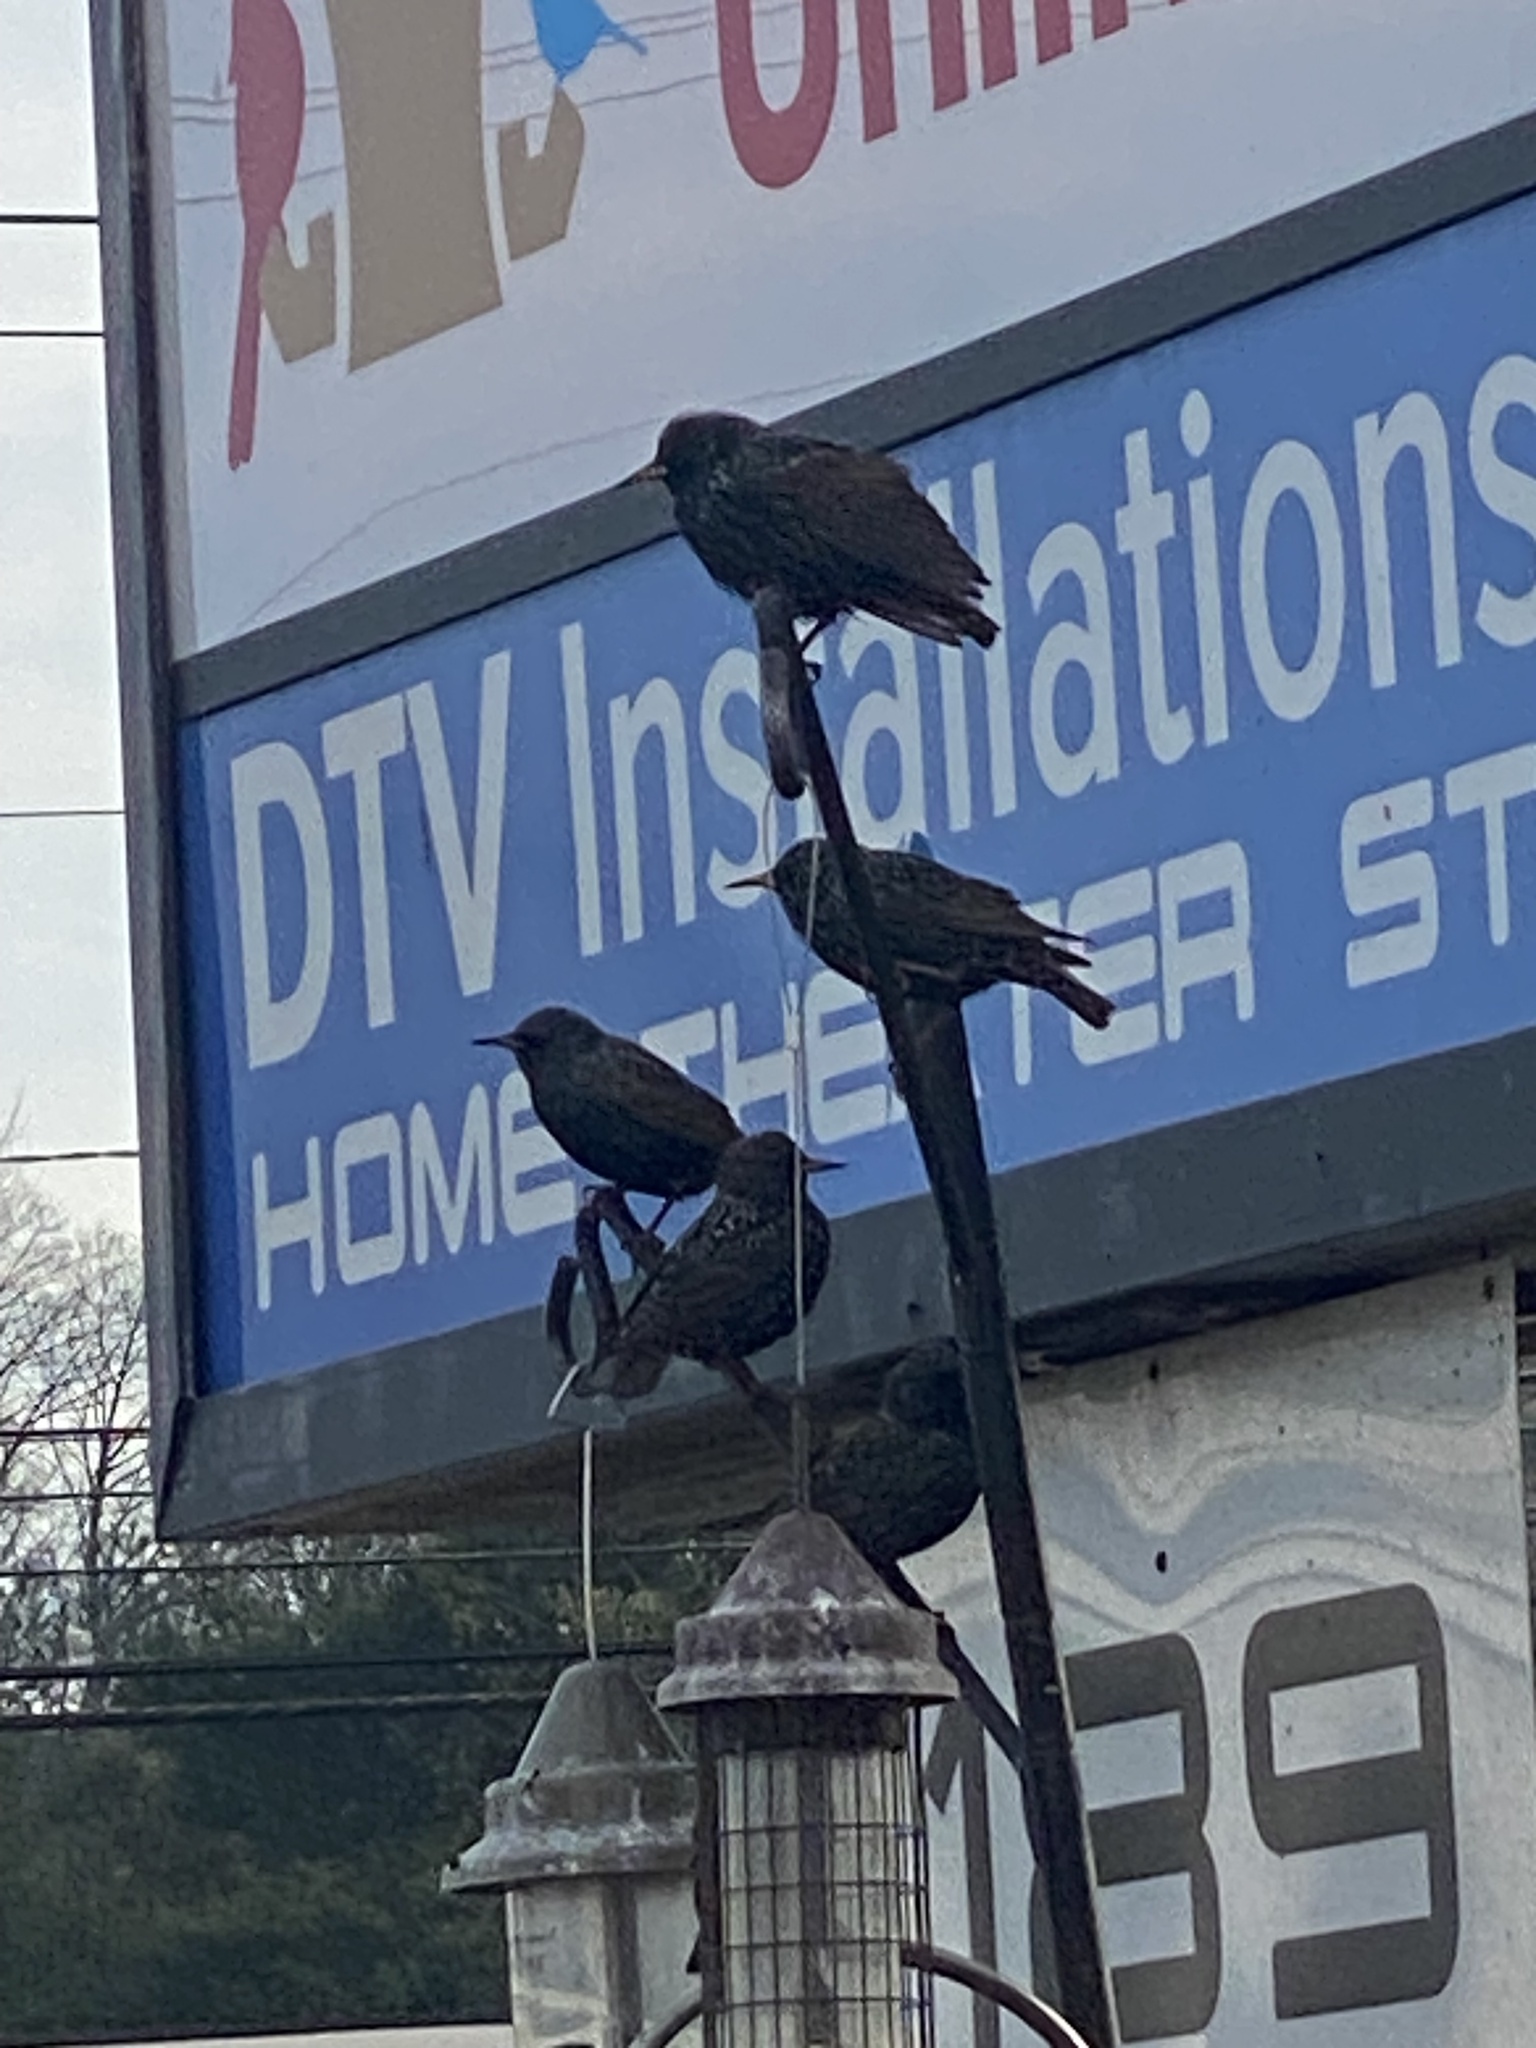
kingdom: Animalia
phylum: Chordata
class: Aves
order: Passeriformes
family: Sturnidae
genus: Sturnus
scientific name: Sturnus vulgaris
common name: Common starling
